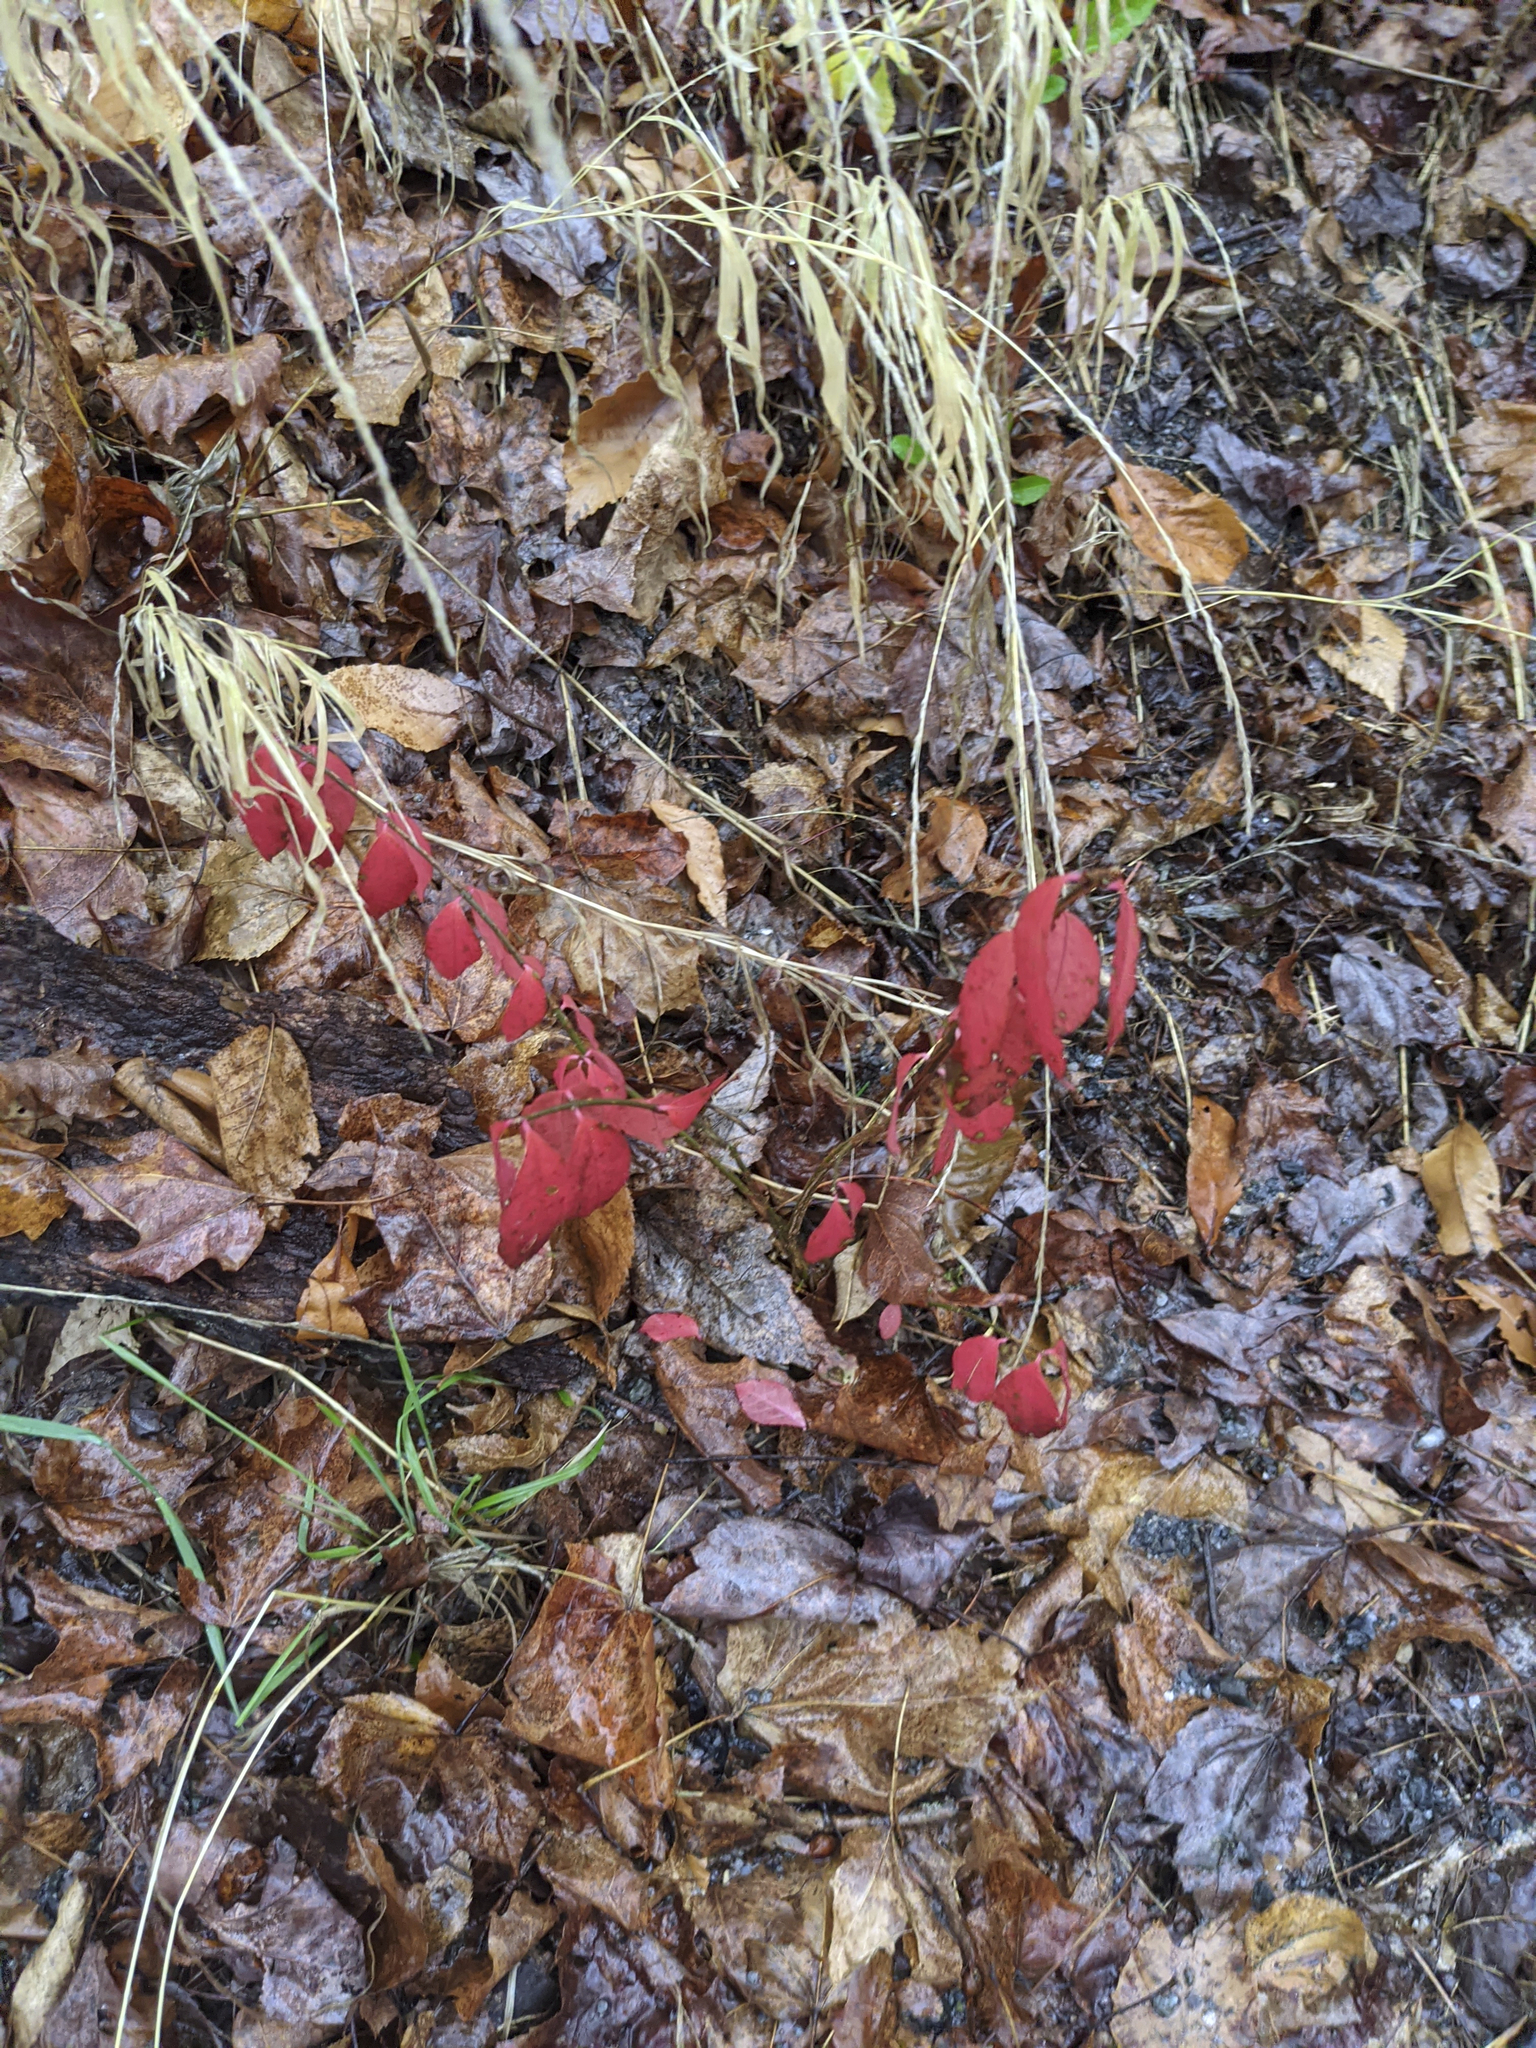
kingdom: Plantae
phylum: Tracheophyta
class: Magnoliopsida
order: Celastrales
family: Celastraceae
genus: Euonymus
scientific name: Euonymus alatus
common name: Winged euonymus
